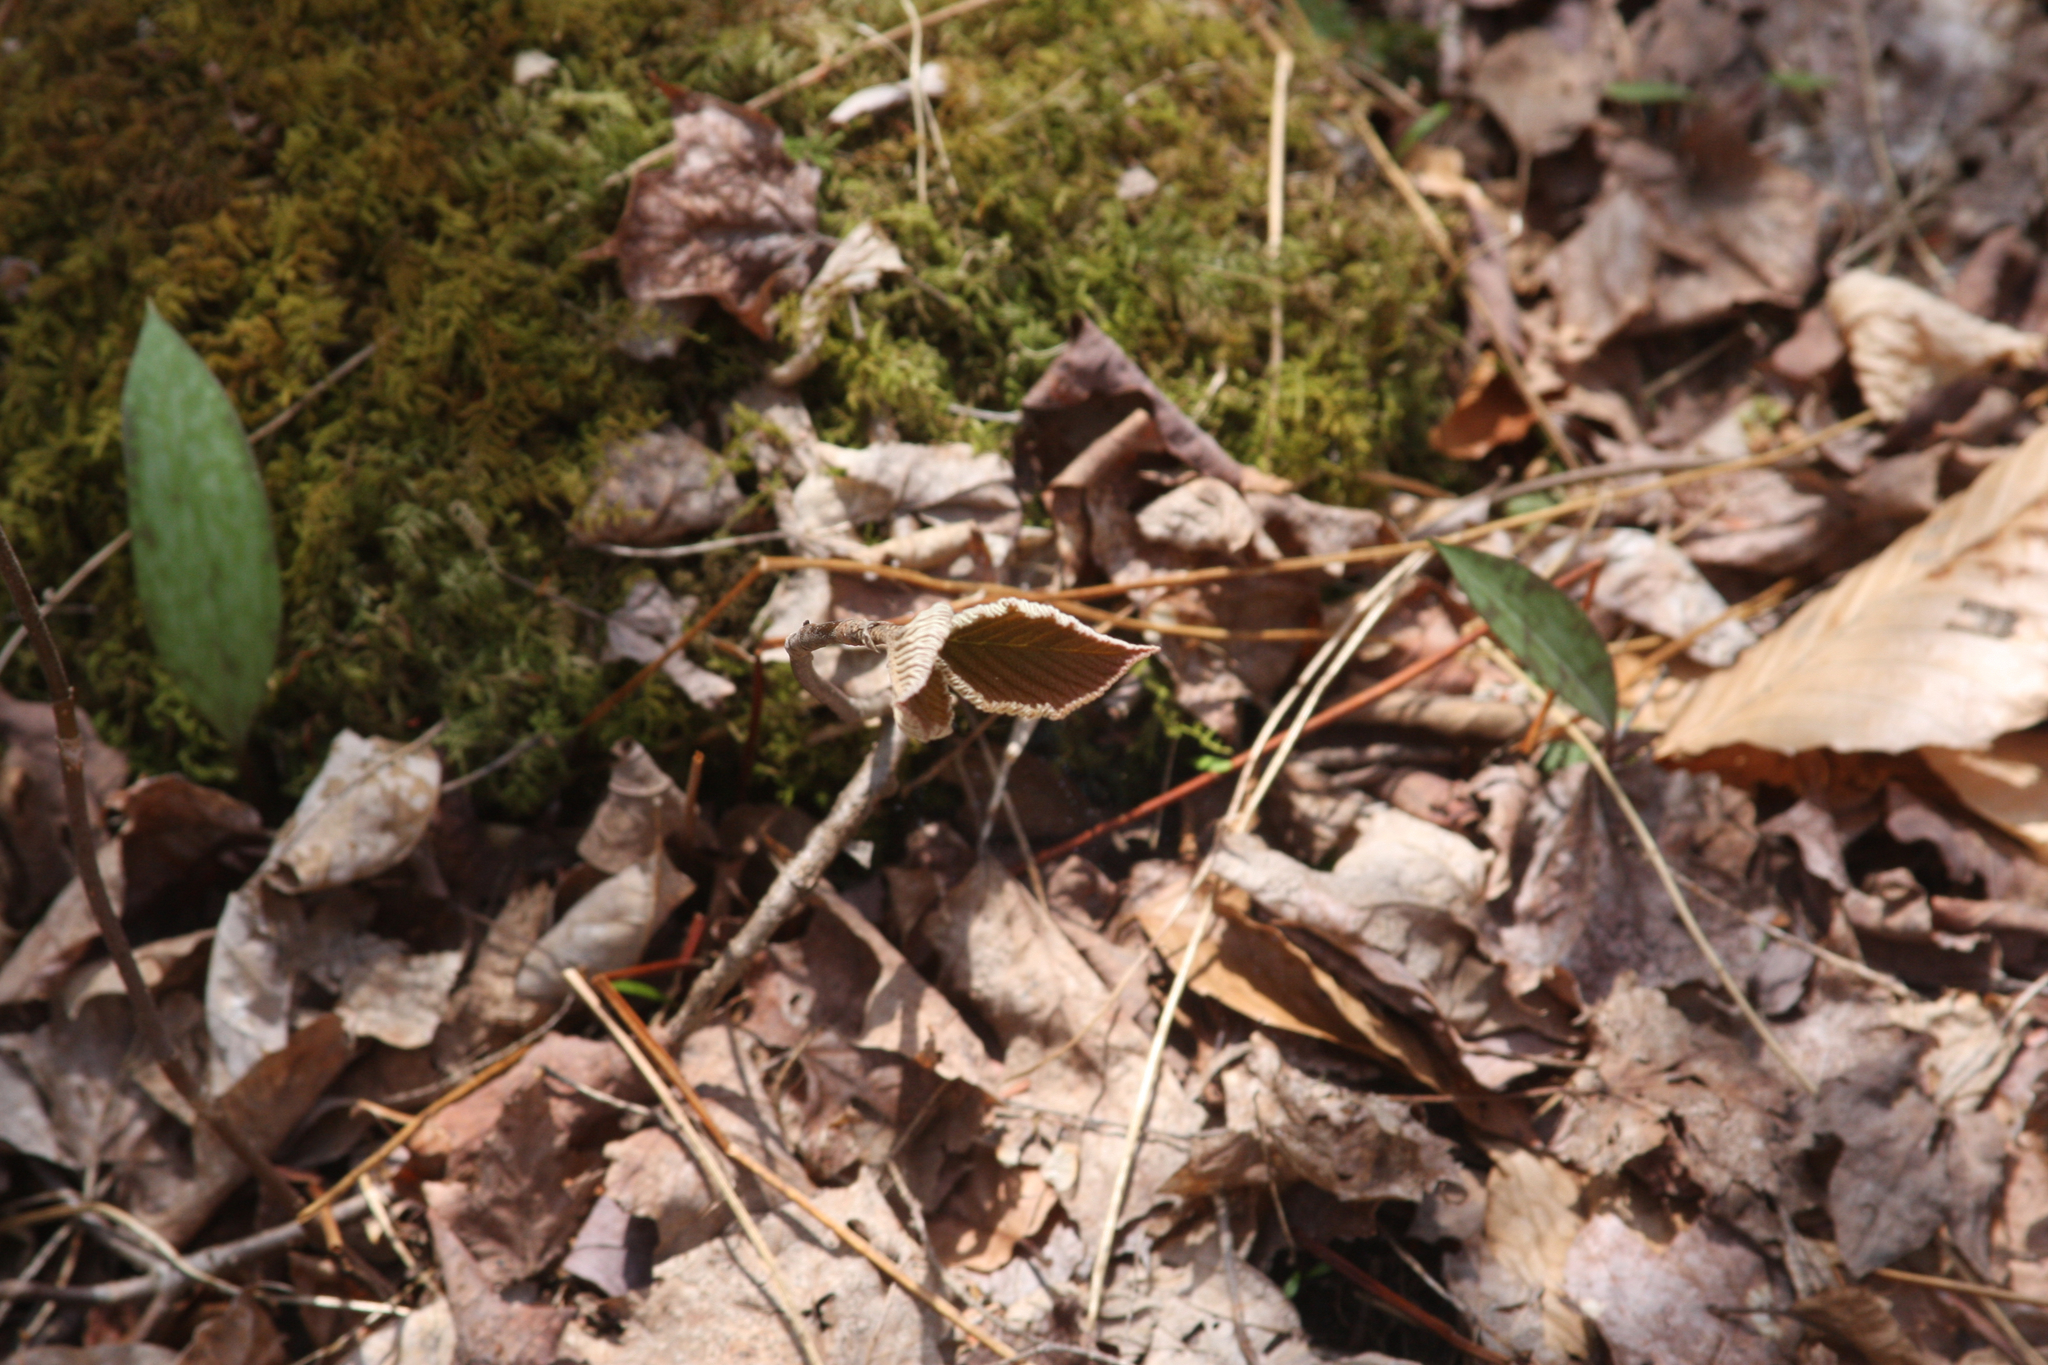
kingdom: Plantae
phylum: Tracheophyta
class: Liliopsida
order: Liliales
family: Liliaceae
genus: Erythronium
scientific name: Erythronium americanum
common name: Yellow adder's-tongue
